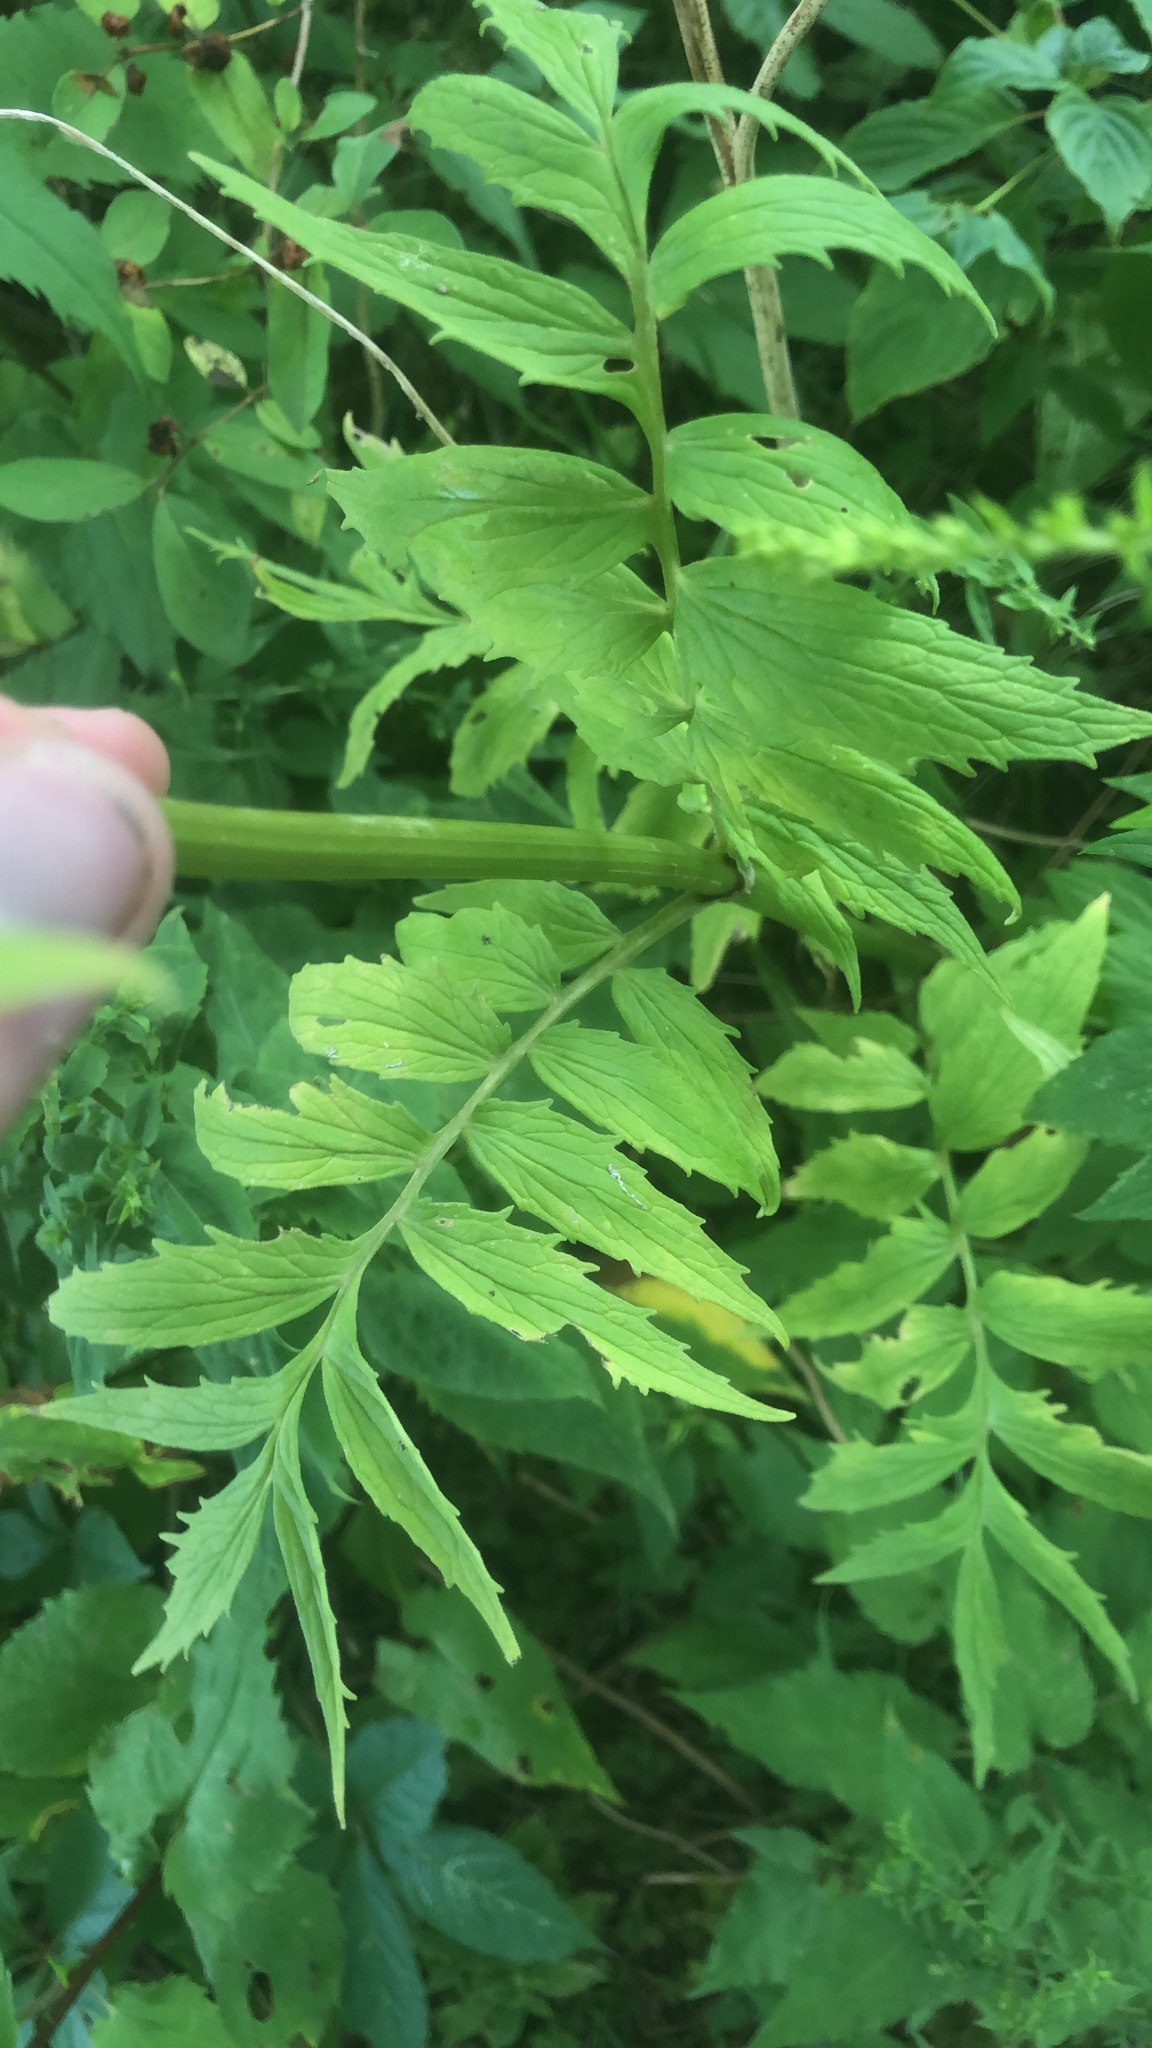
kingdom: Plantae
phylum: Tracheophyta
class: Magnoliopsida
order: Dipsacales
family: Caprifoliaceae
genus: Valeriana
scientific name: Valeriana officinalis
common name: Common valerian
